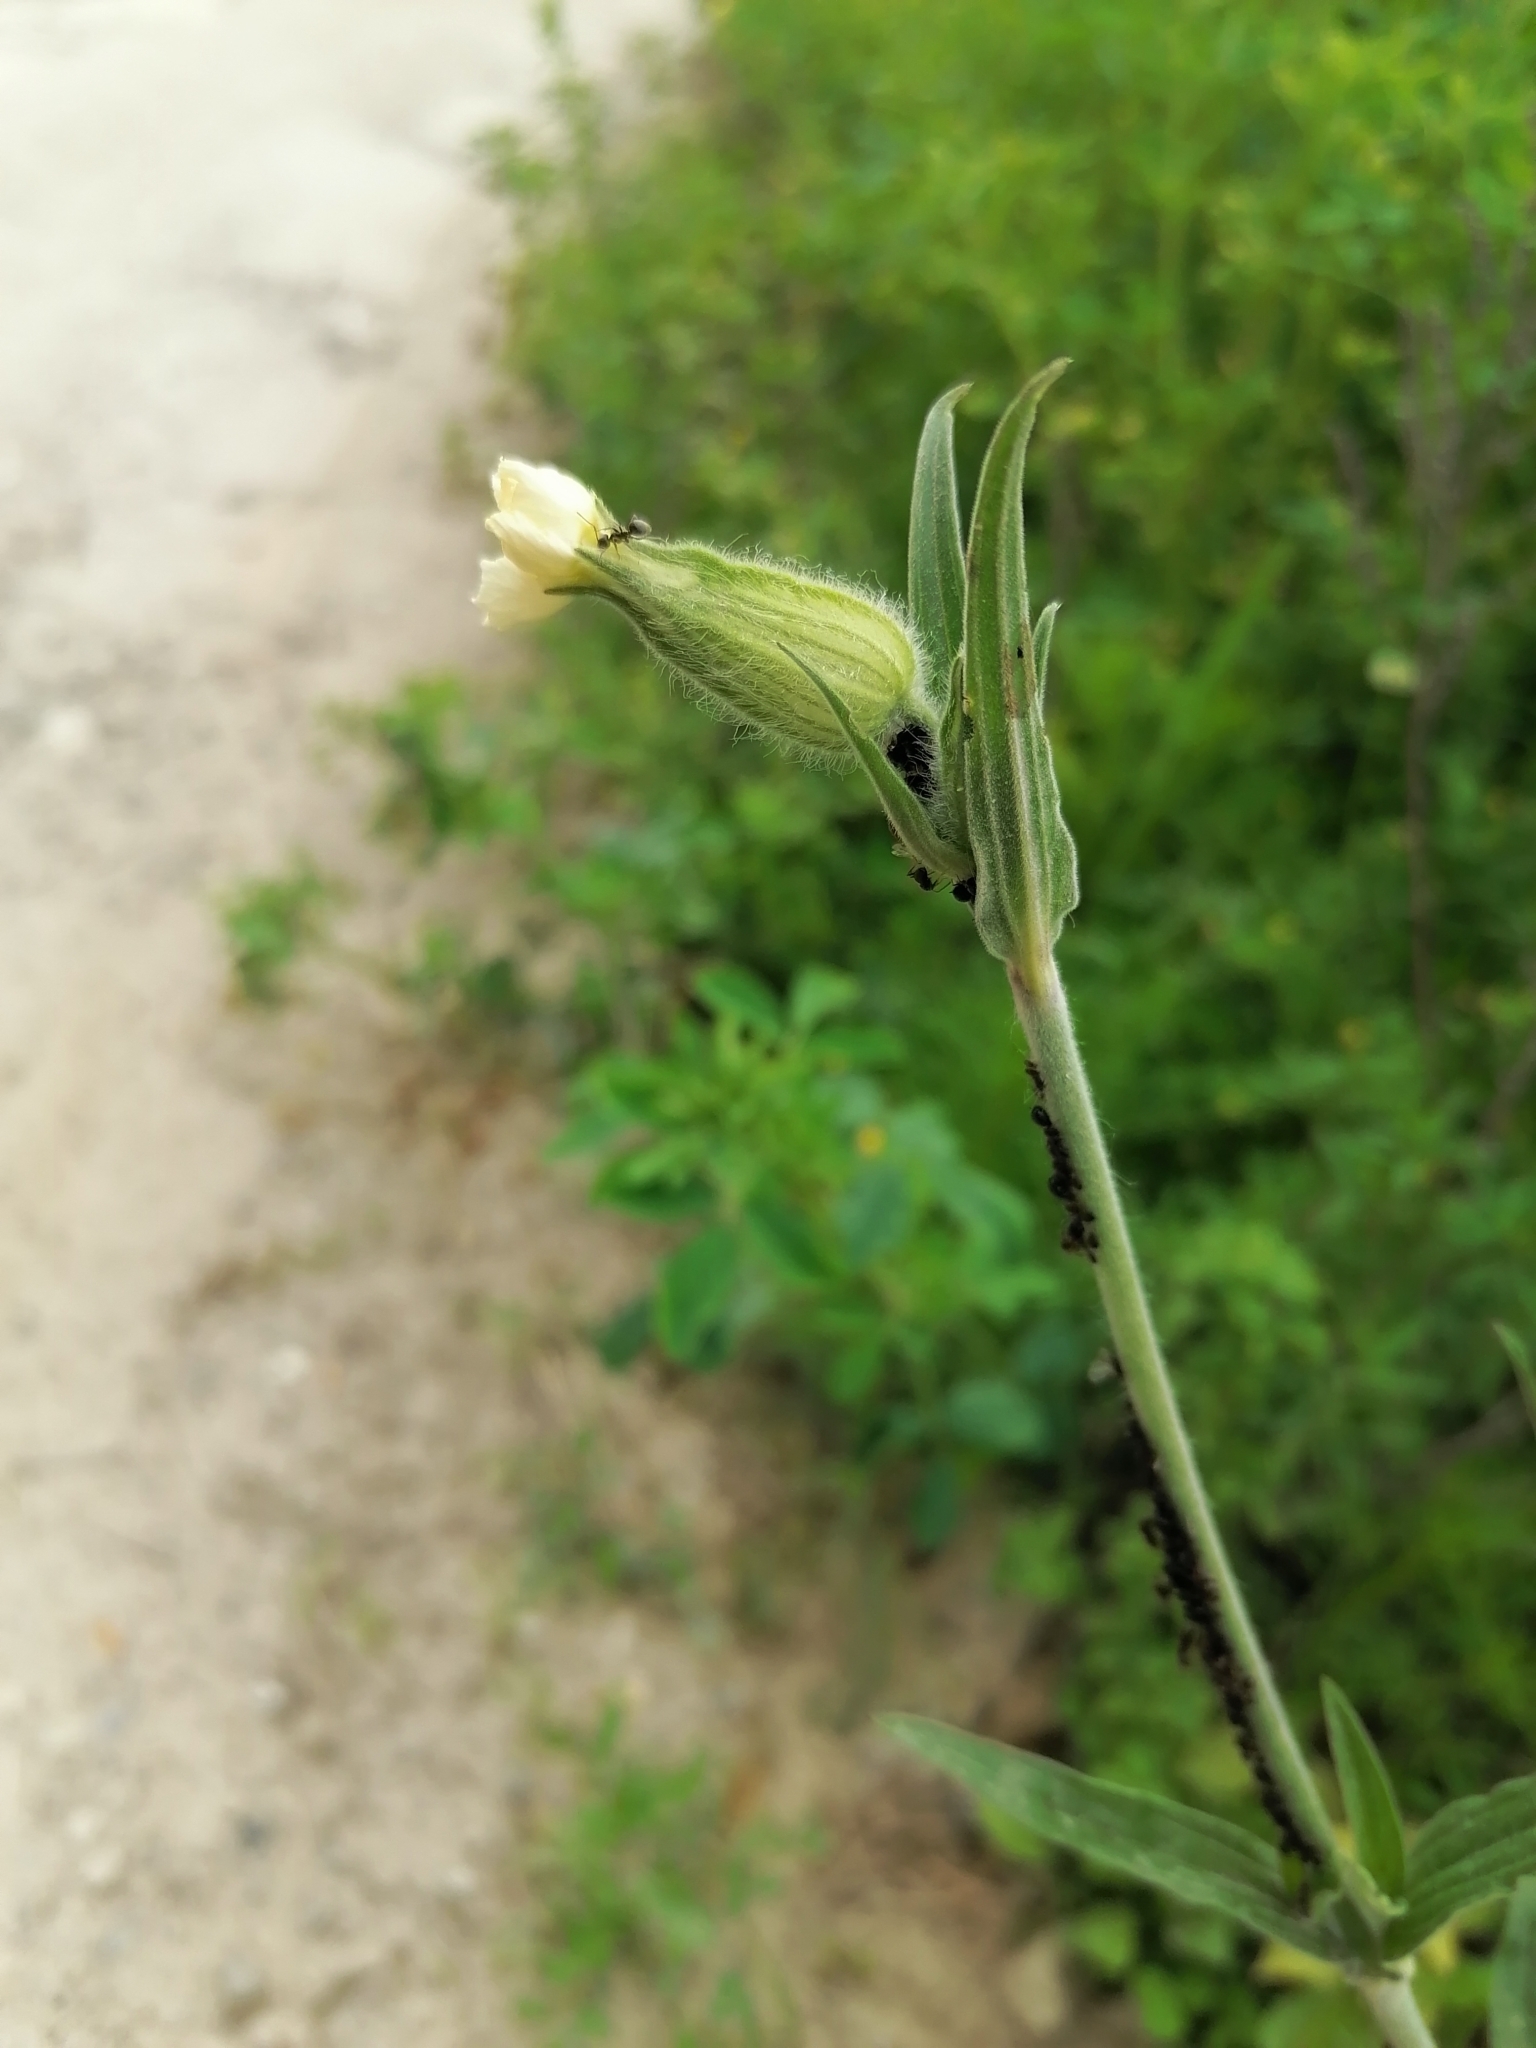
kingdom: Plantae
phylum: Tracheophyta
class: Magnoliopsida
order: Caryophyllales
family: Caryophyllaceae
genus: Silene
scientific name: Silene latifolia
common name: White campion
